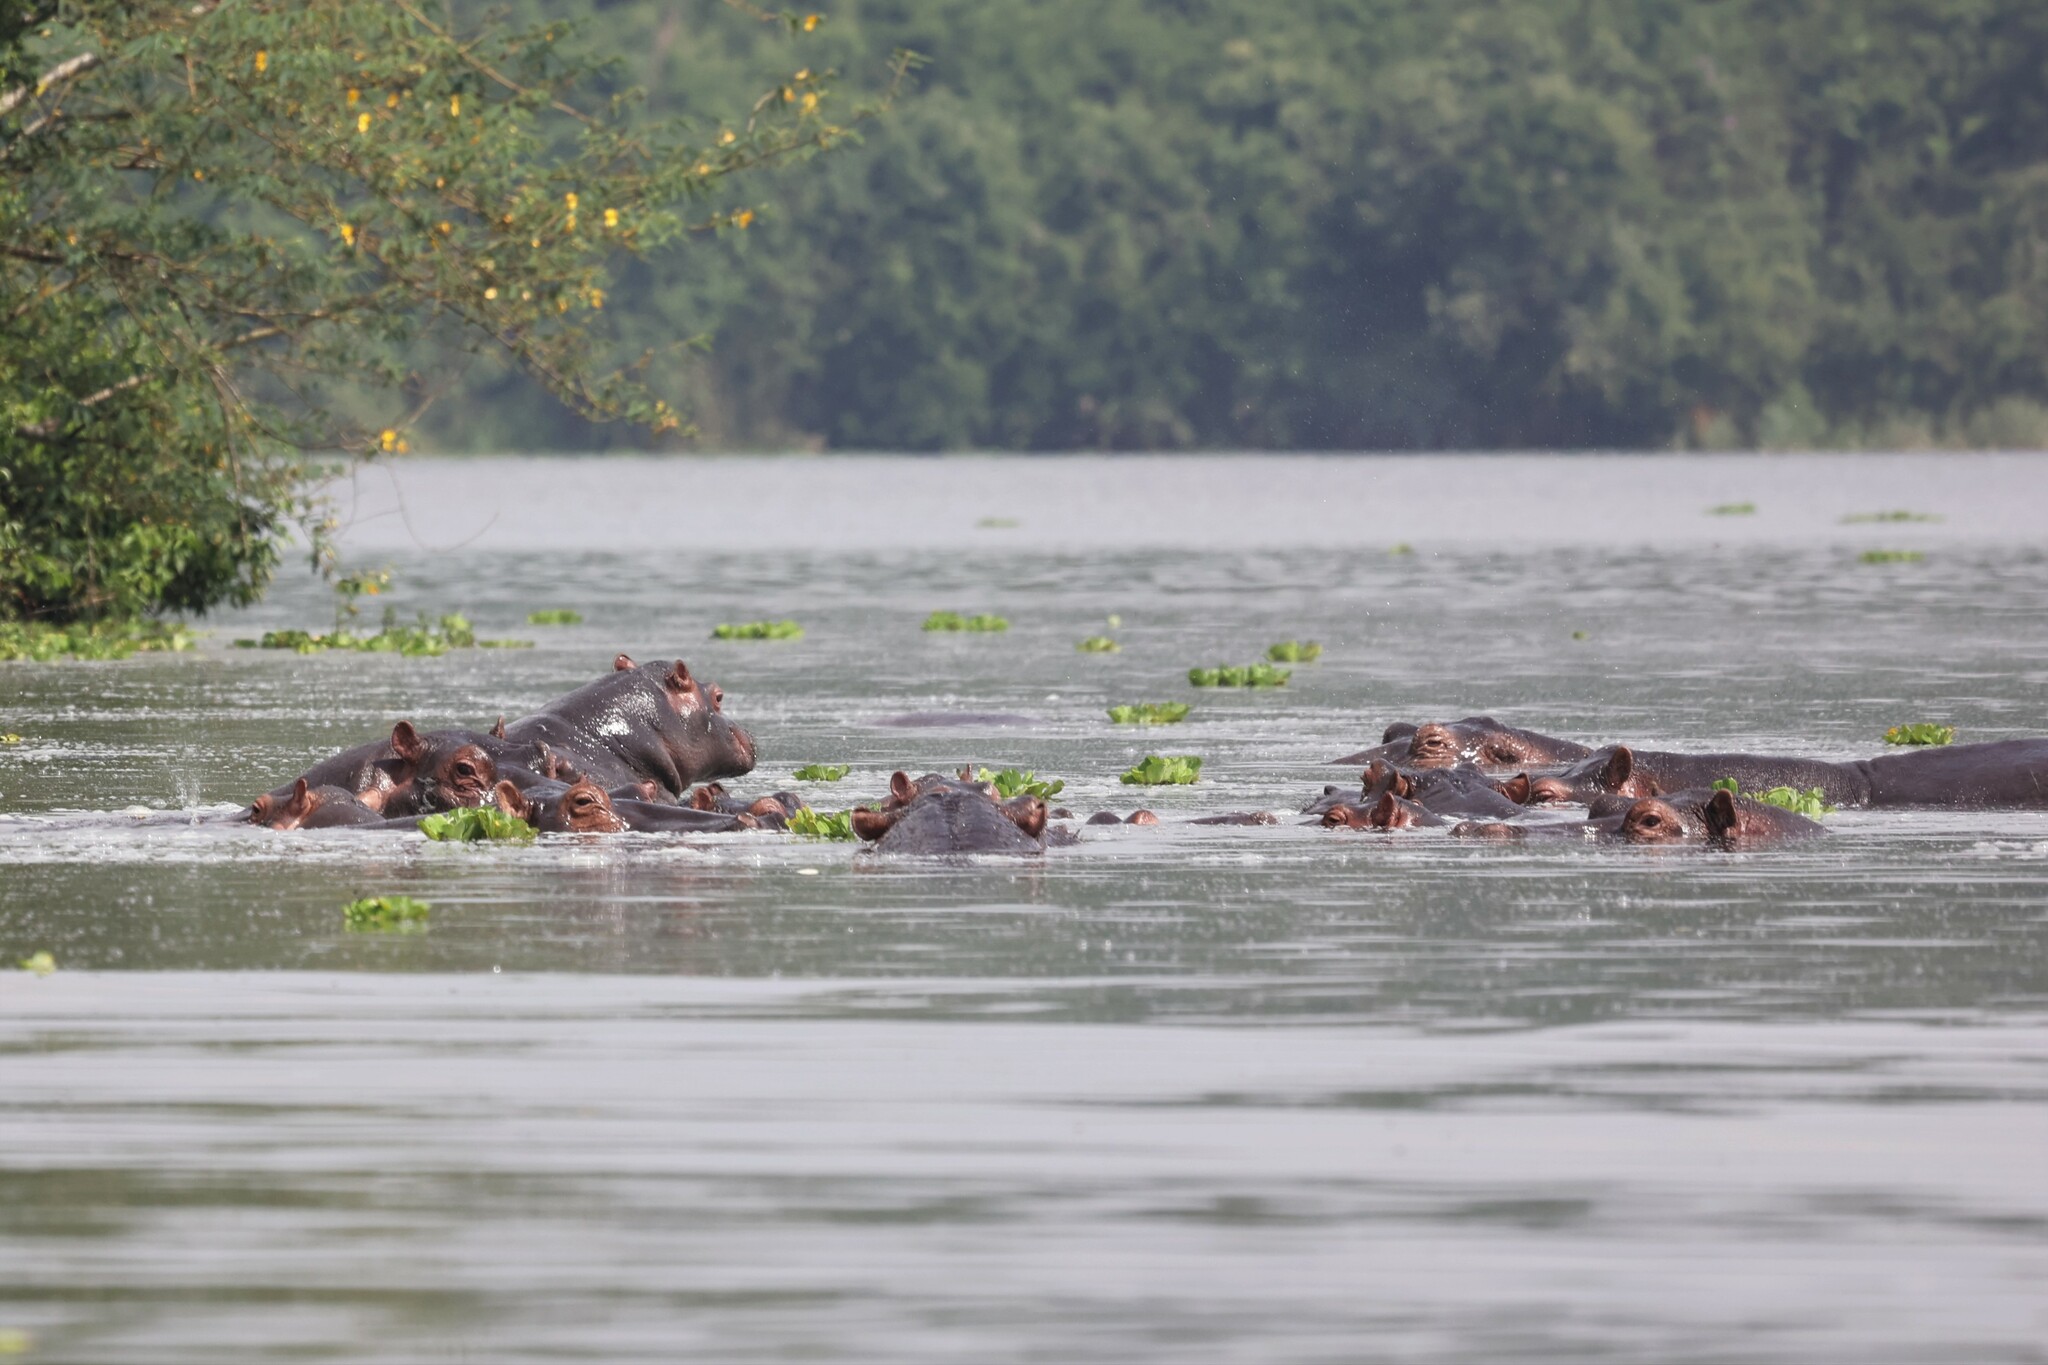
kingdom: Animalia
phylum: Chordata
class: Mammalia
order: Artiodactyla
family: Hippopotamidae
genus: Hippopotamus
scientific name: Hippopotamus amphibius
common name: Common hippopotamus
